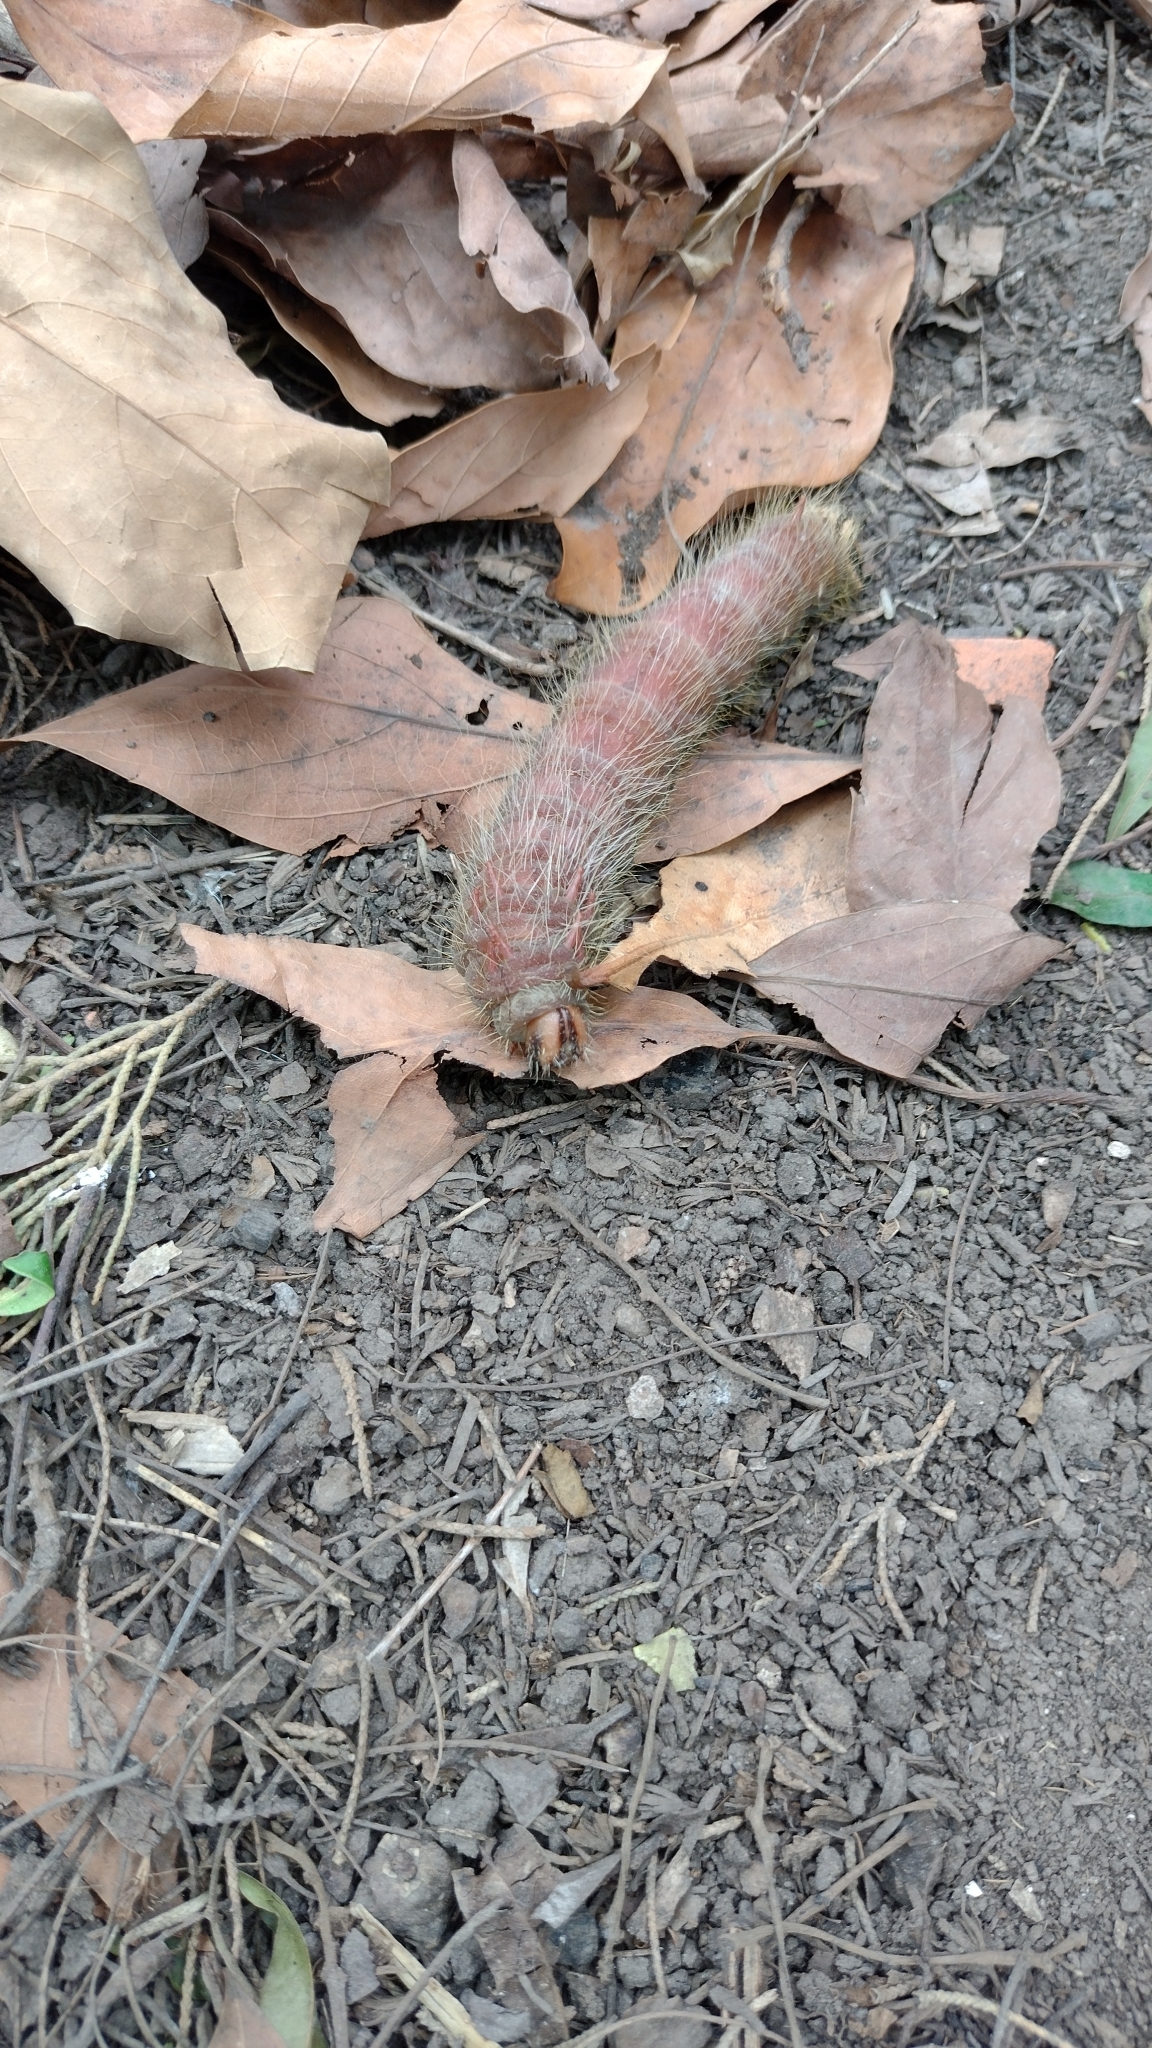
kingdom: Animalia
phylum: Arthropoda
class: Insecta
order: Lepidoptera
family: Saturniidae
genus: Eacles
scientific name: Eacles imperialis
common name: Imperial moth
